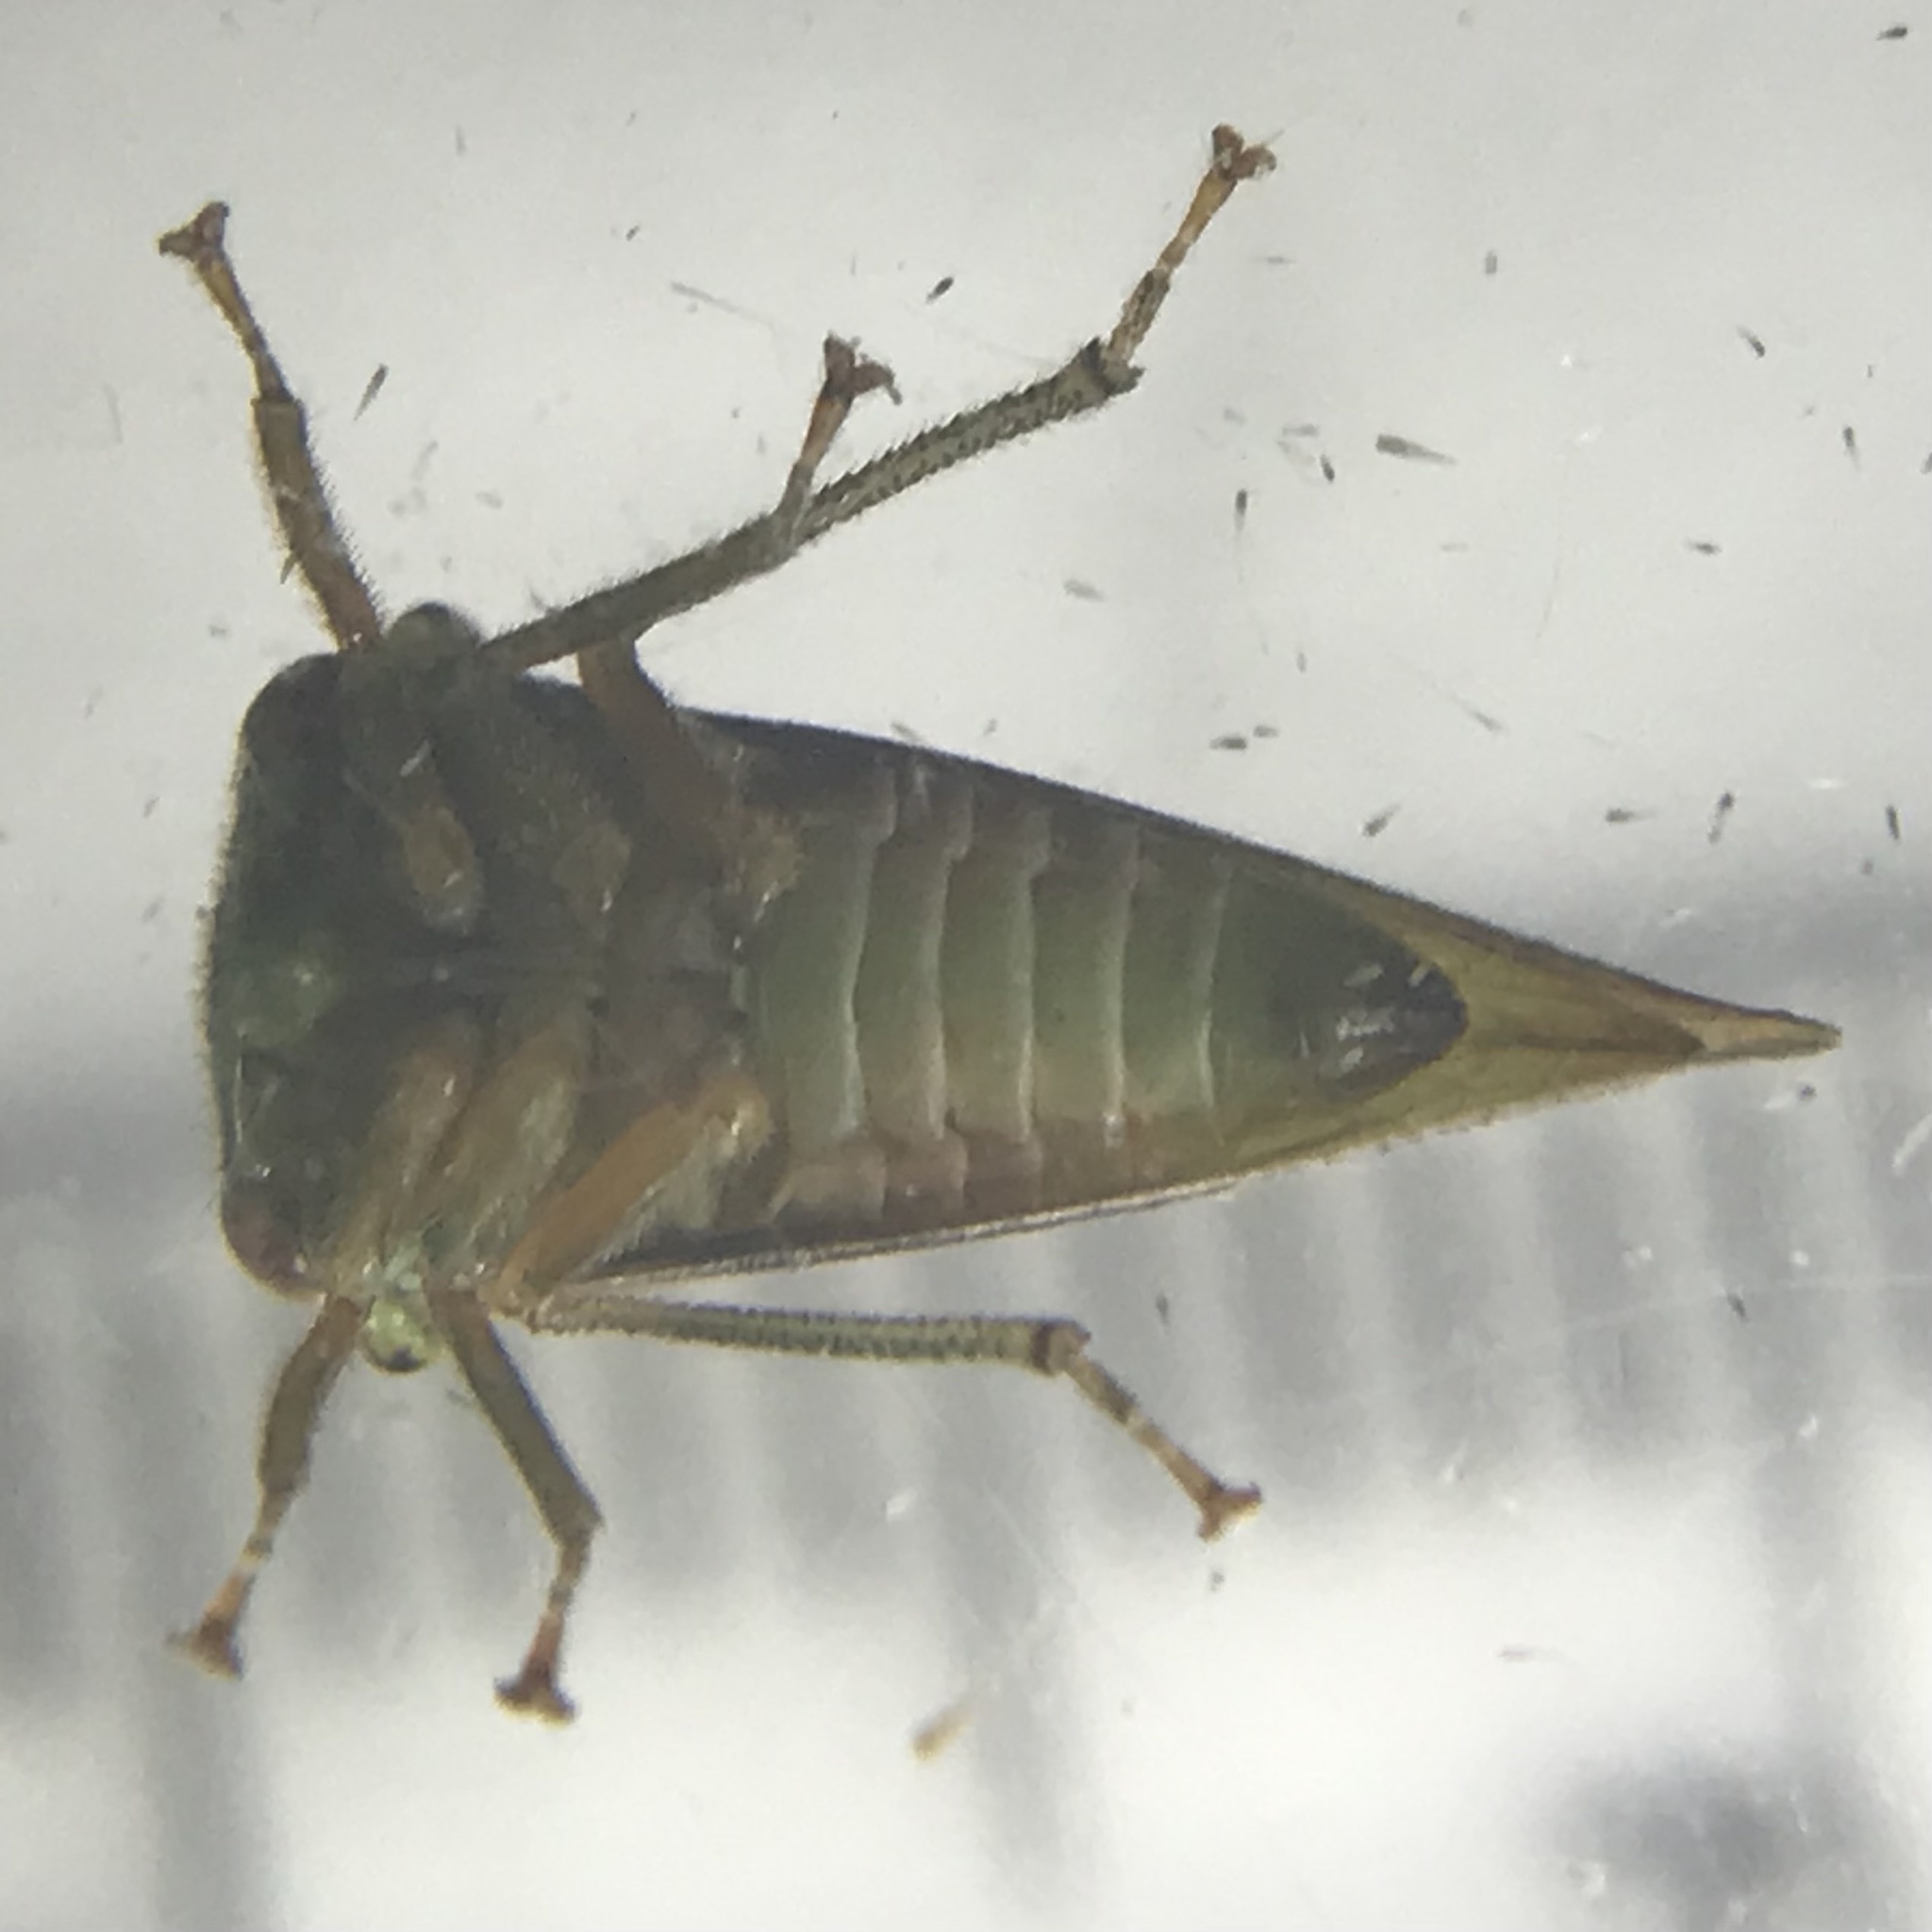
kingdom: Animalia
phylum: Arthropoda
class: Insecta
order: Hemiptera
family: Membracidae
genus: Archasia
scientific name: Archasia belfragei
